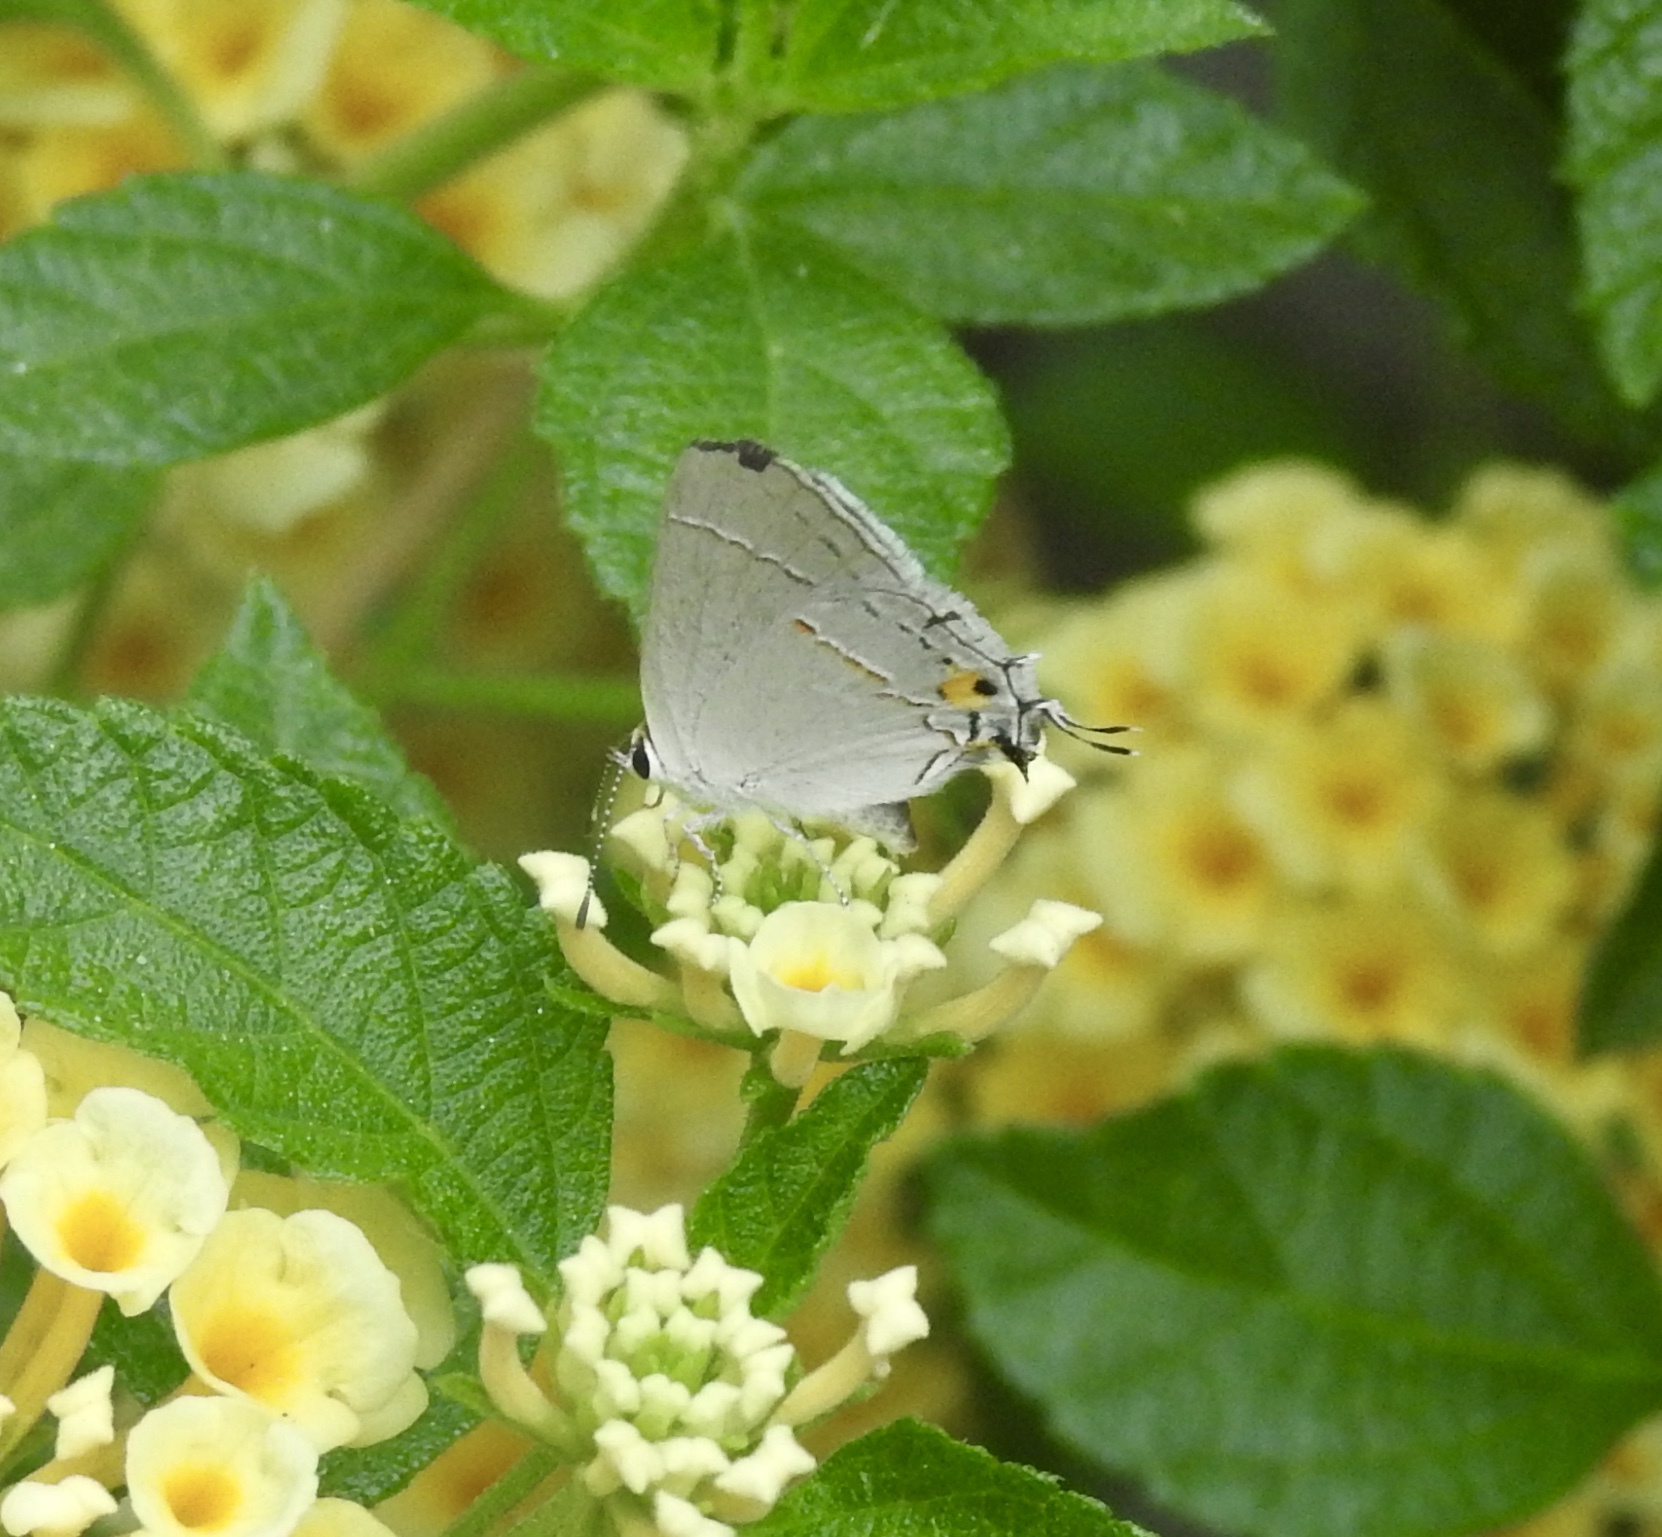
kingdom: Animalia
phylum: Arthropoda
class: Insecta
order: Lepidoptera
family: Lycaenidae
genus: Strymon
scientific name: Strymon melinus
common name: Gray hairstreak
